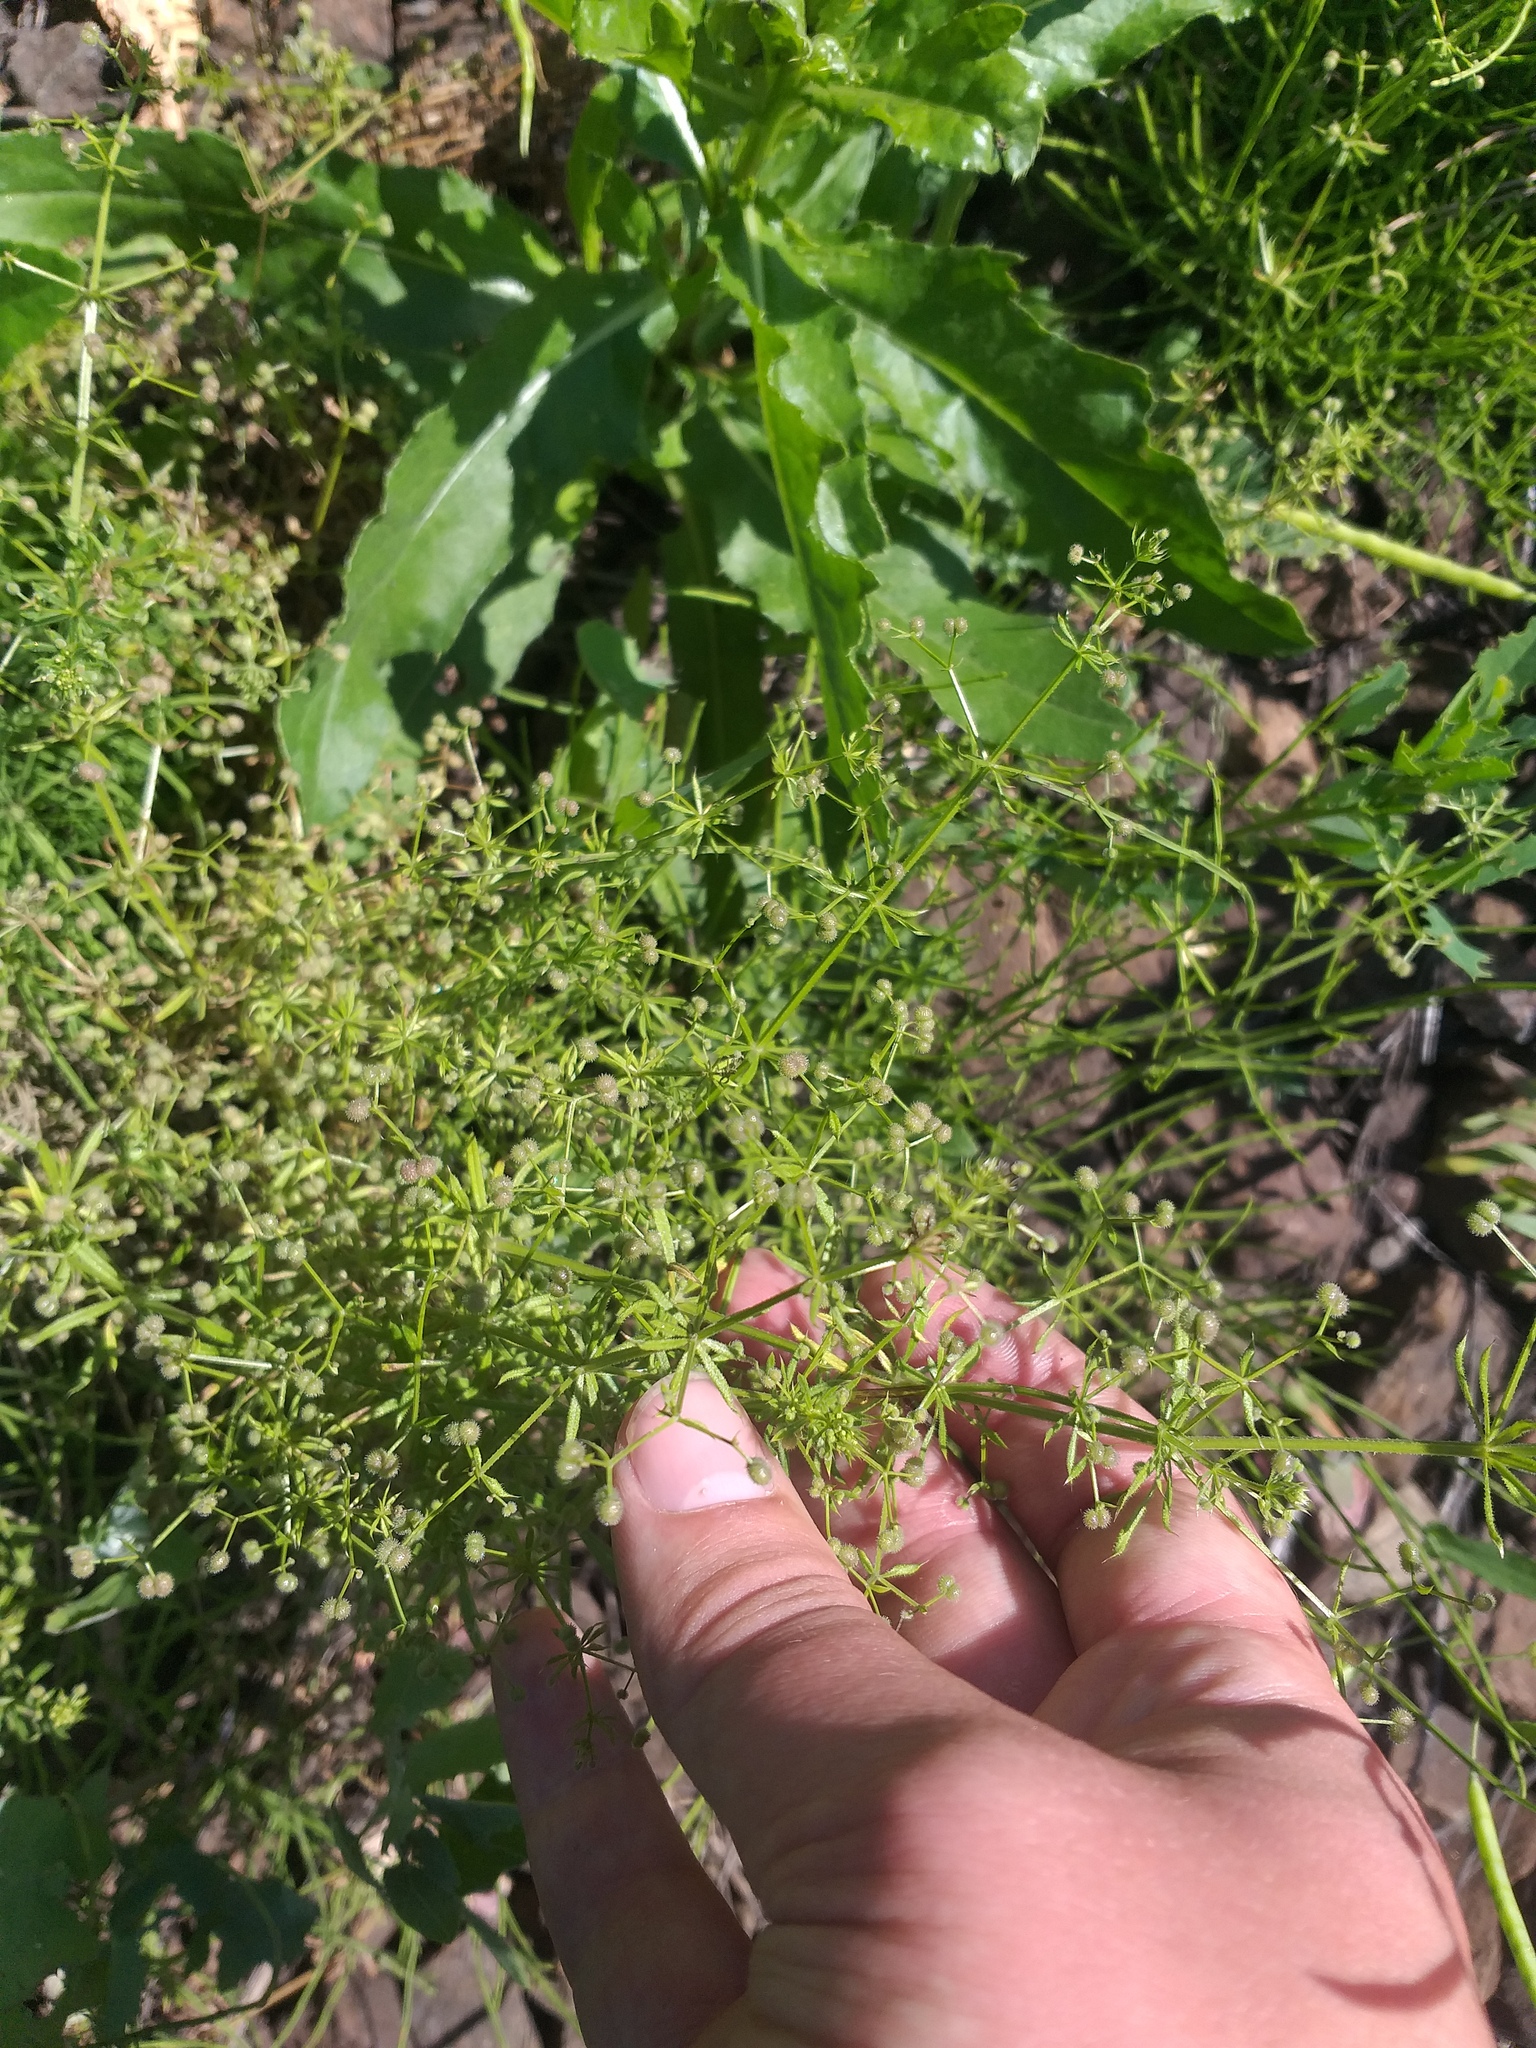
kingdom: Plantae
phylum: Tracheophyta
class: Magnoliopsida
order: Gentianales
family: Rubiaceae
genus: Galium
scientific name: Galium
